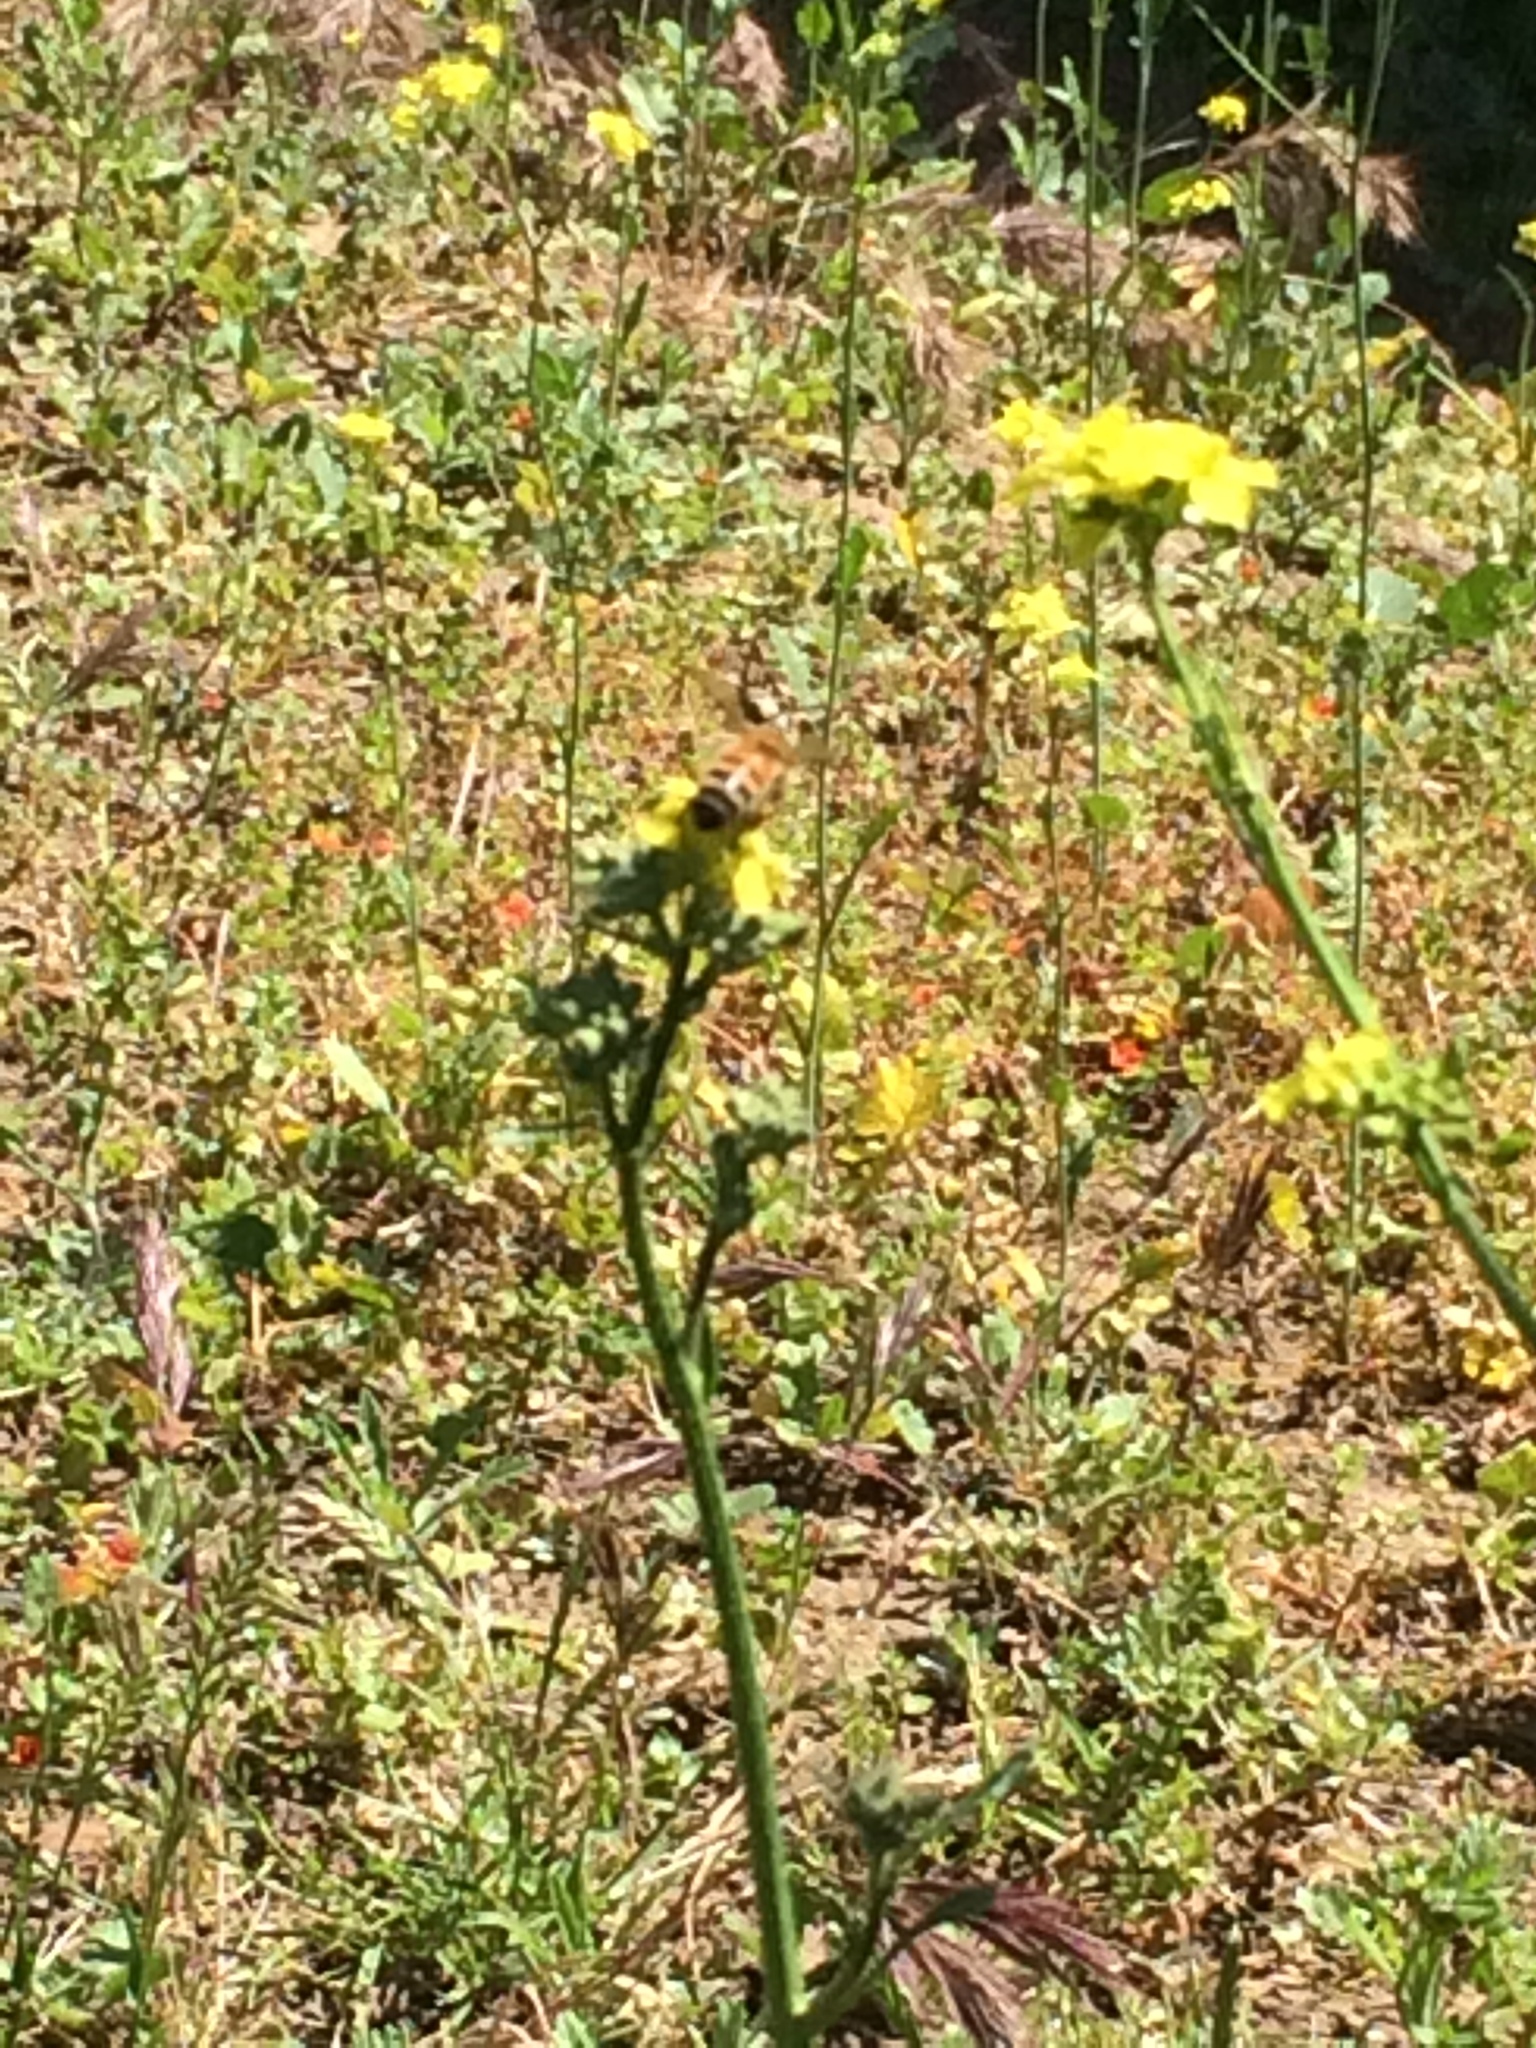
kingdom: Animalia
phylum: Arthropoda
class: Insecta
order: Hymenoptera
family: Apidae
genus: Apis
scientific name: Apis mellifera
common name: Honey bee
